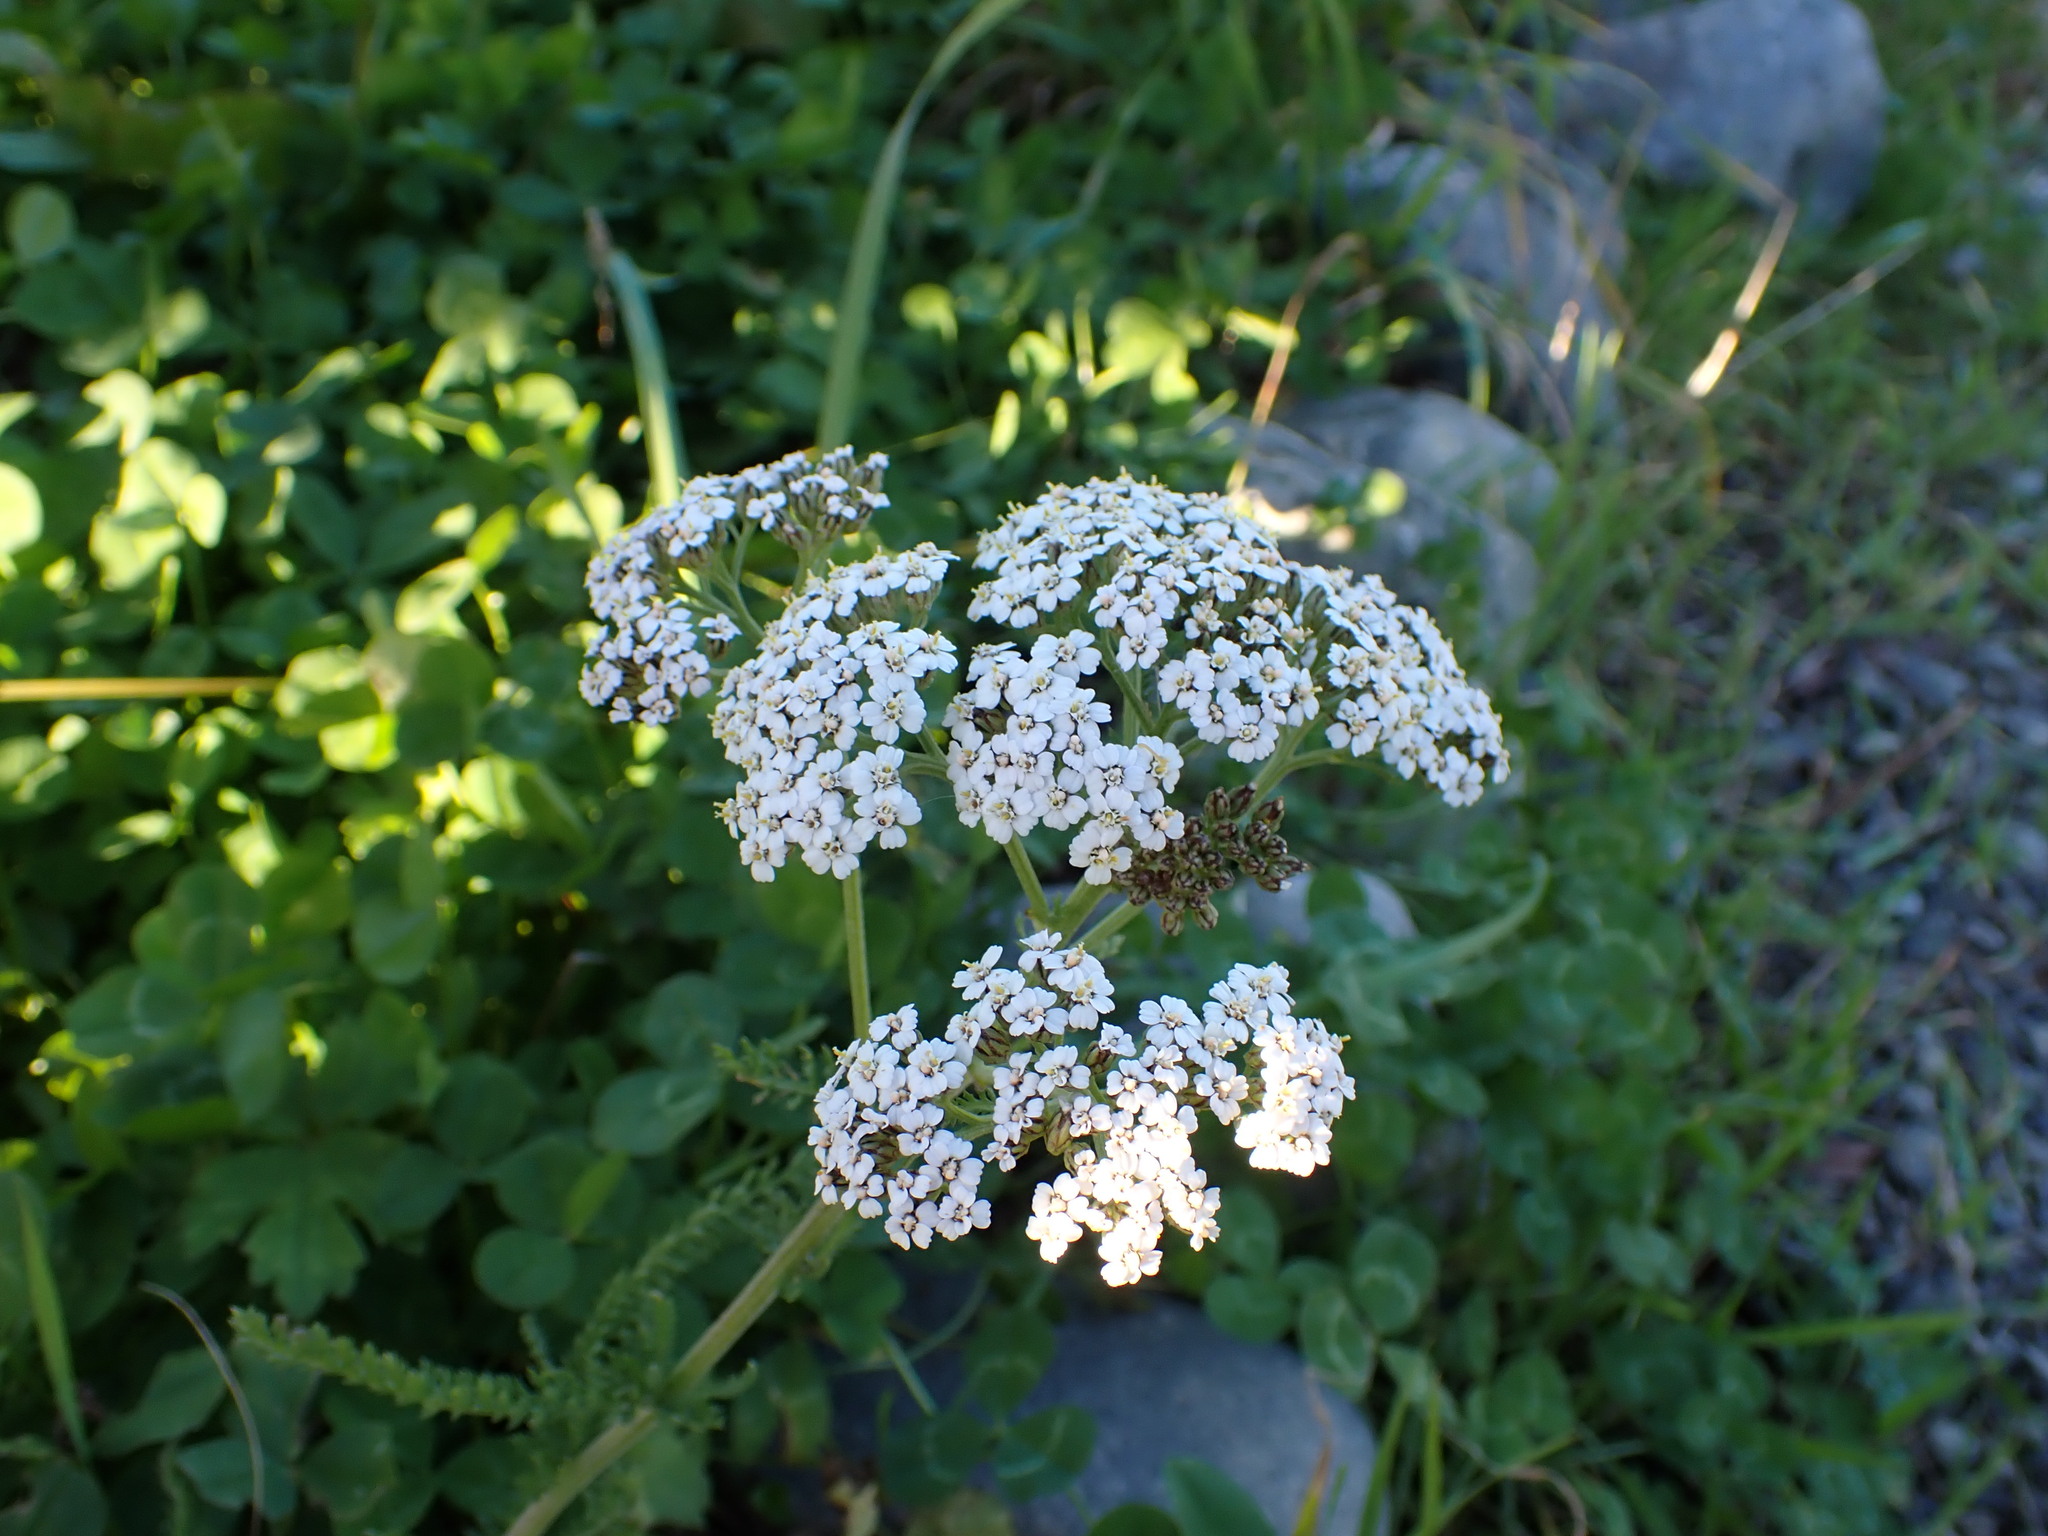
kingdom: Plantae
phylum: Tracheophyta
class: Magnoliopsida
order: Asterales
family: Asteraceae
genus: Achillea
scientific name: Achillea millefolium
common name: Yarrow
